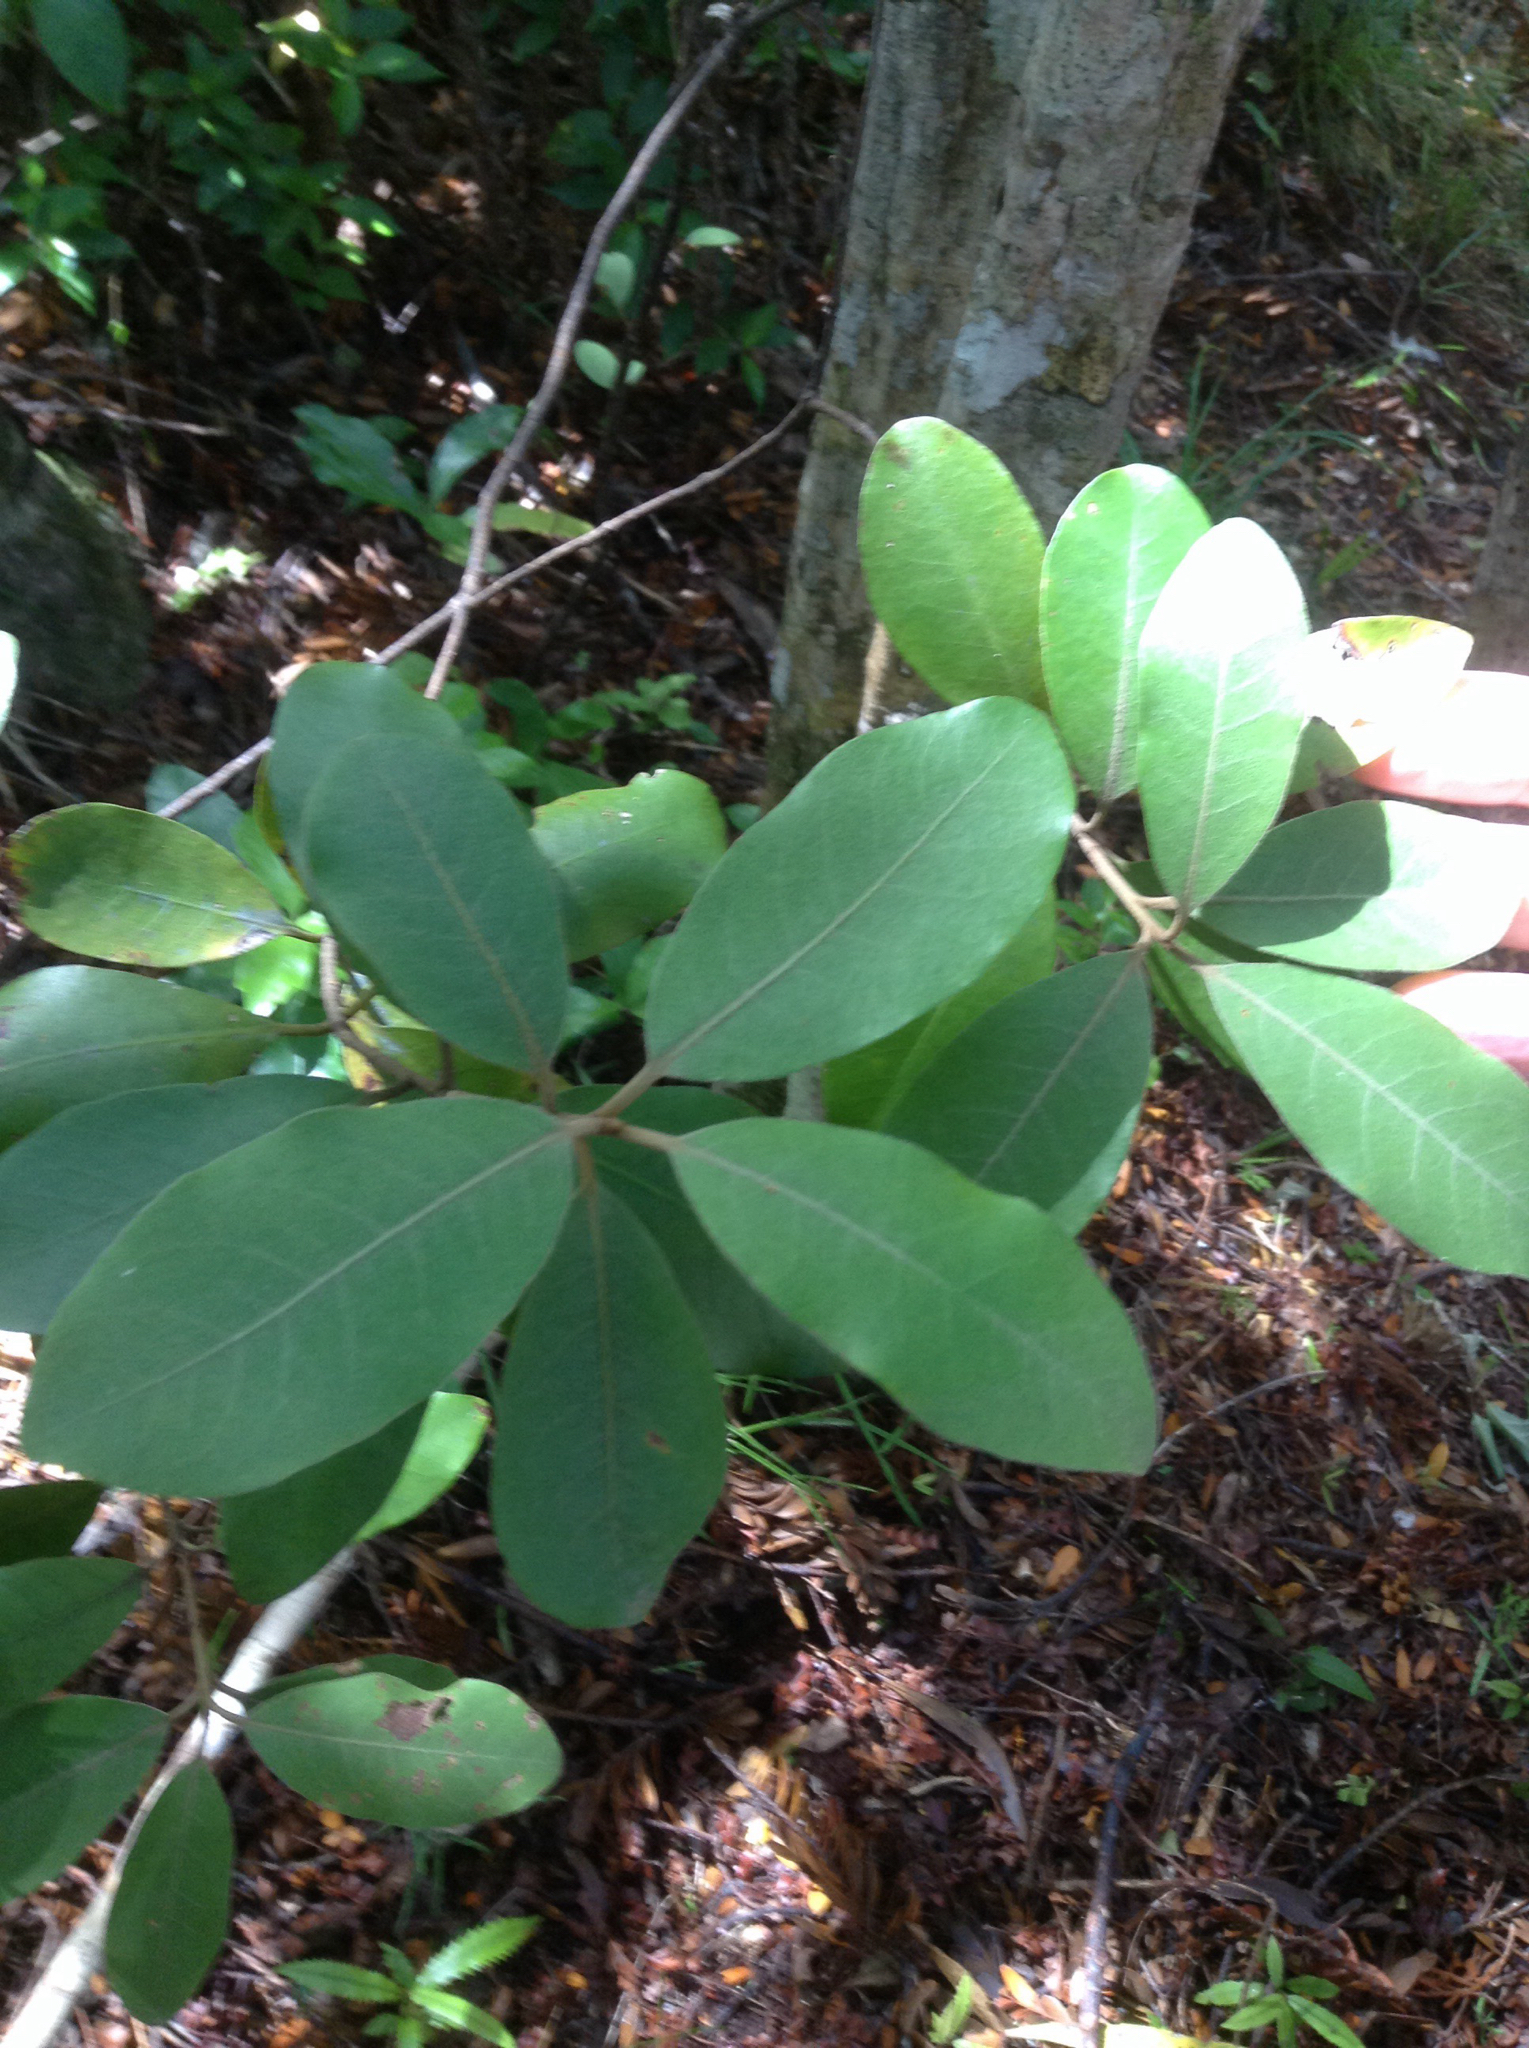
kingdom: Plantae
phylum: Tracheophyta
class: Magnoliopsida
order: Apiales
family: Pittosporaceae
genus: Pittosporum
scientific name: Pittosporum ellipticum
